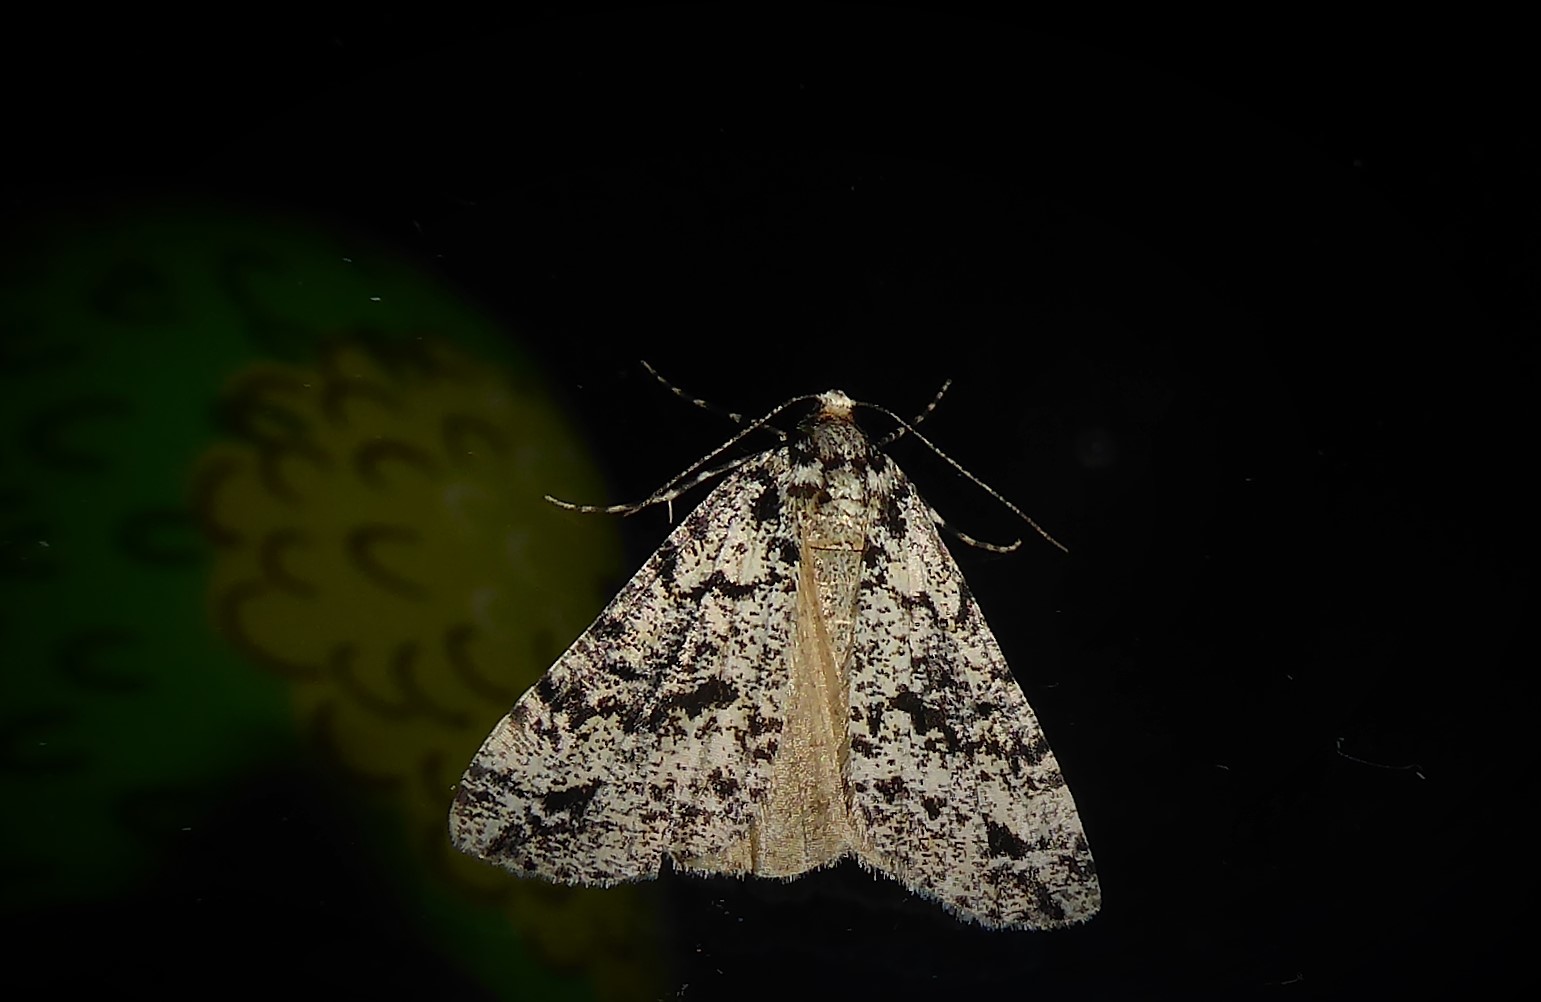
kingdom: Animalia
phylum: Arthropoda
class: Insecta
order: Lepidoptera
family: Geometridae
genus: Pseudocoremia
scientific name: Pseudocoremia leucelaea
